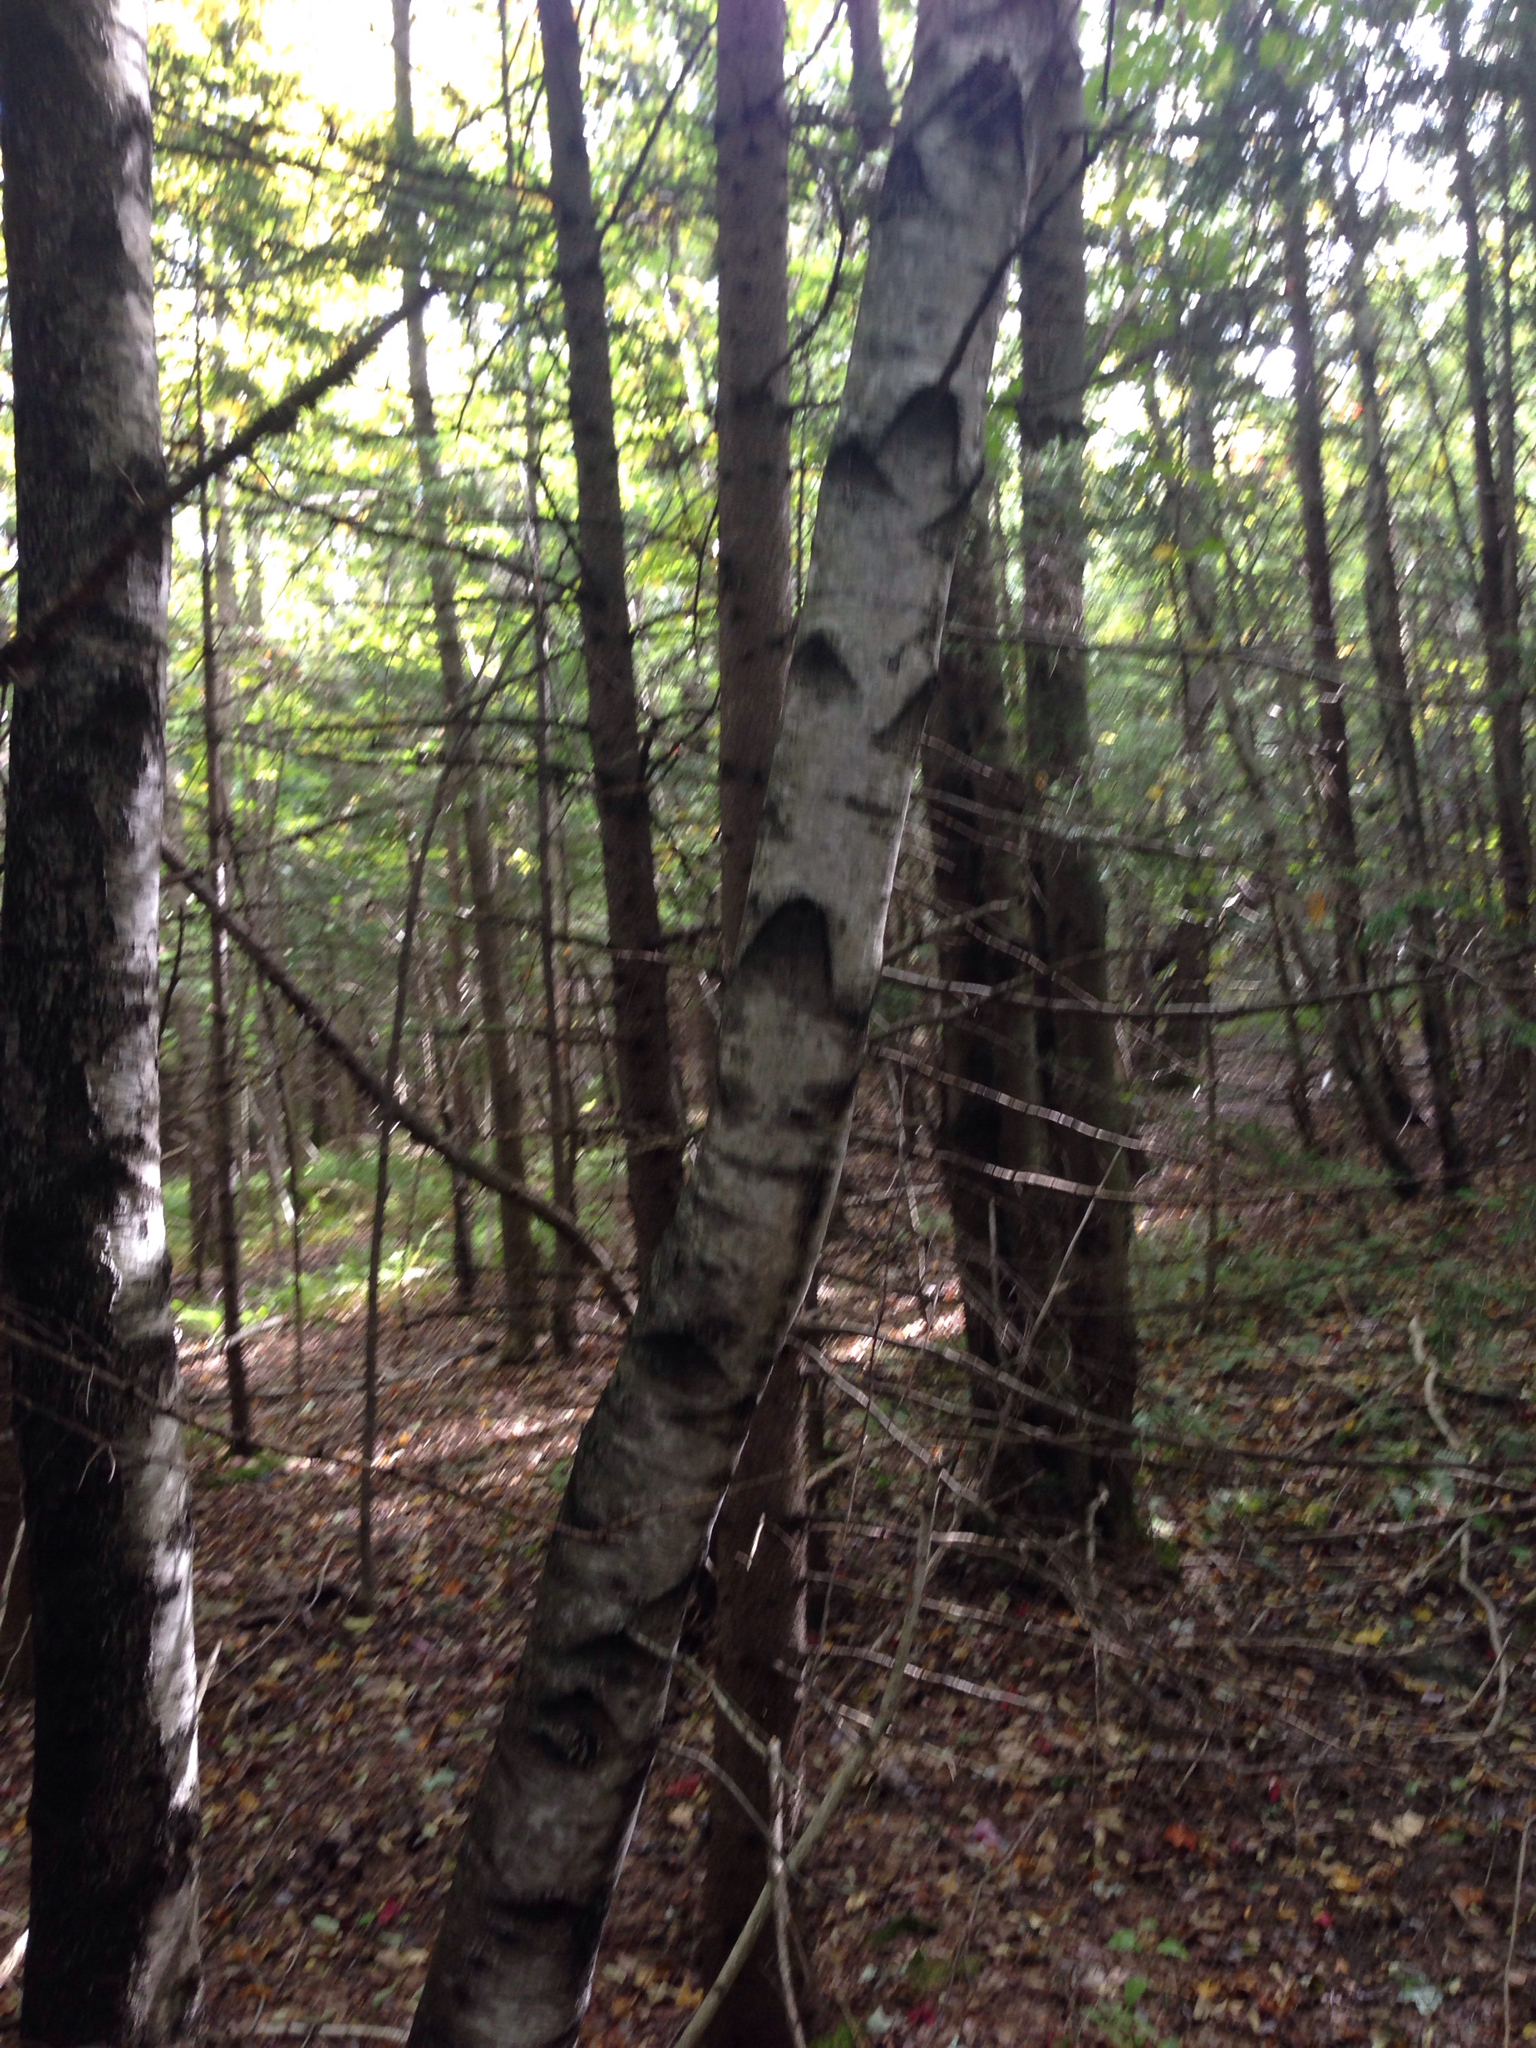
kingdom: Plantae
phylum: Tracheophyta
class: Magnoliopsida
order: Fagales
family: Betulaceae
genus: Betula
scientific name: Betula populifolia
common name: Fire birch
